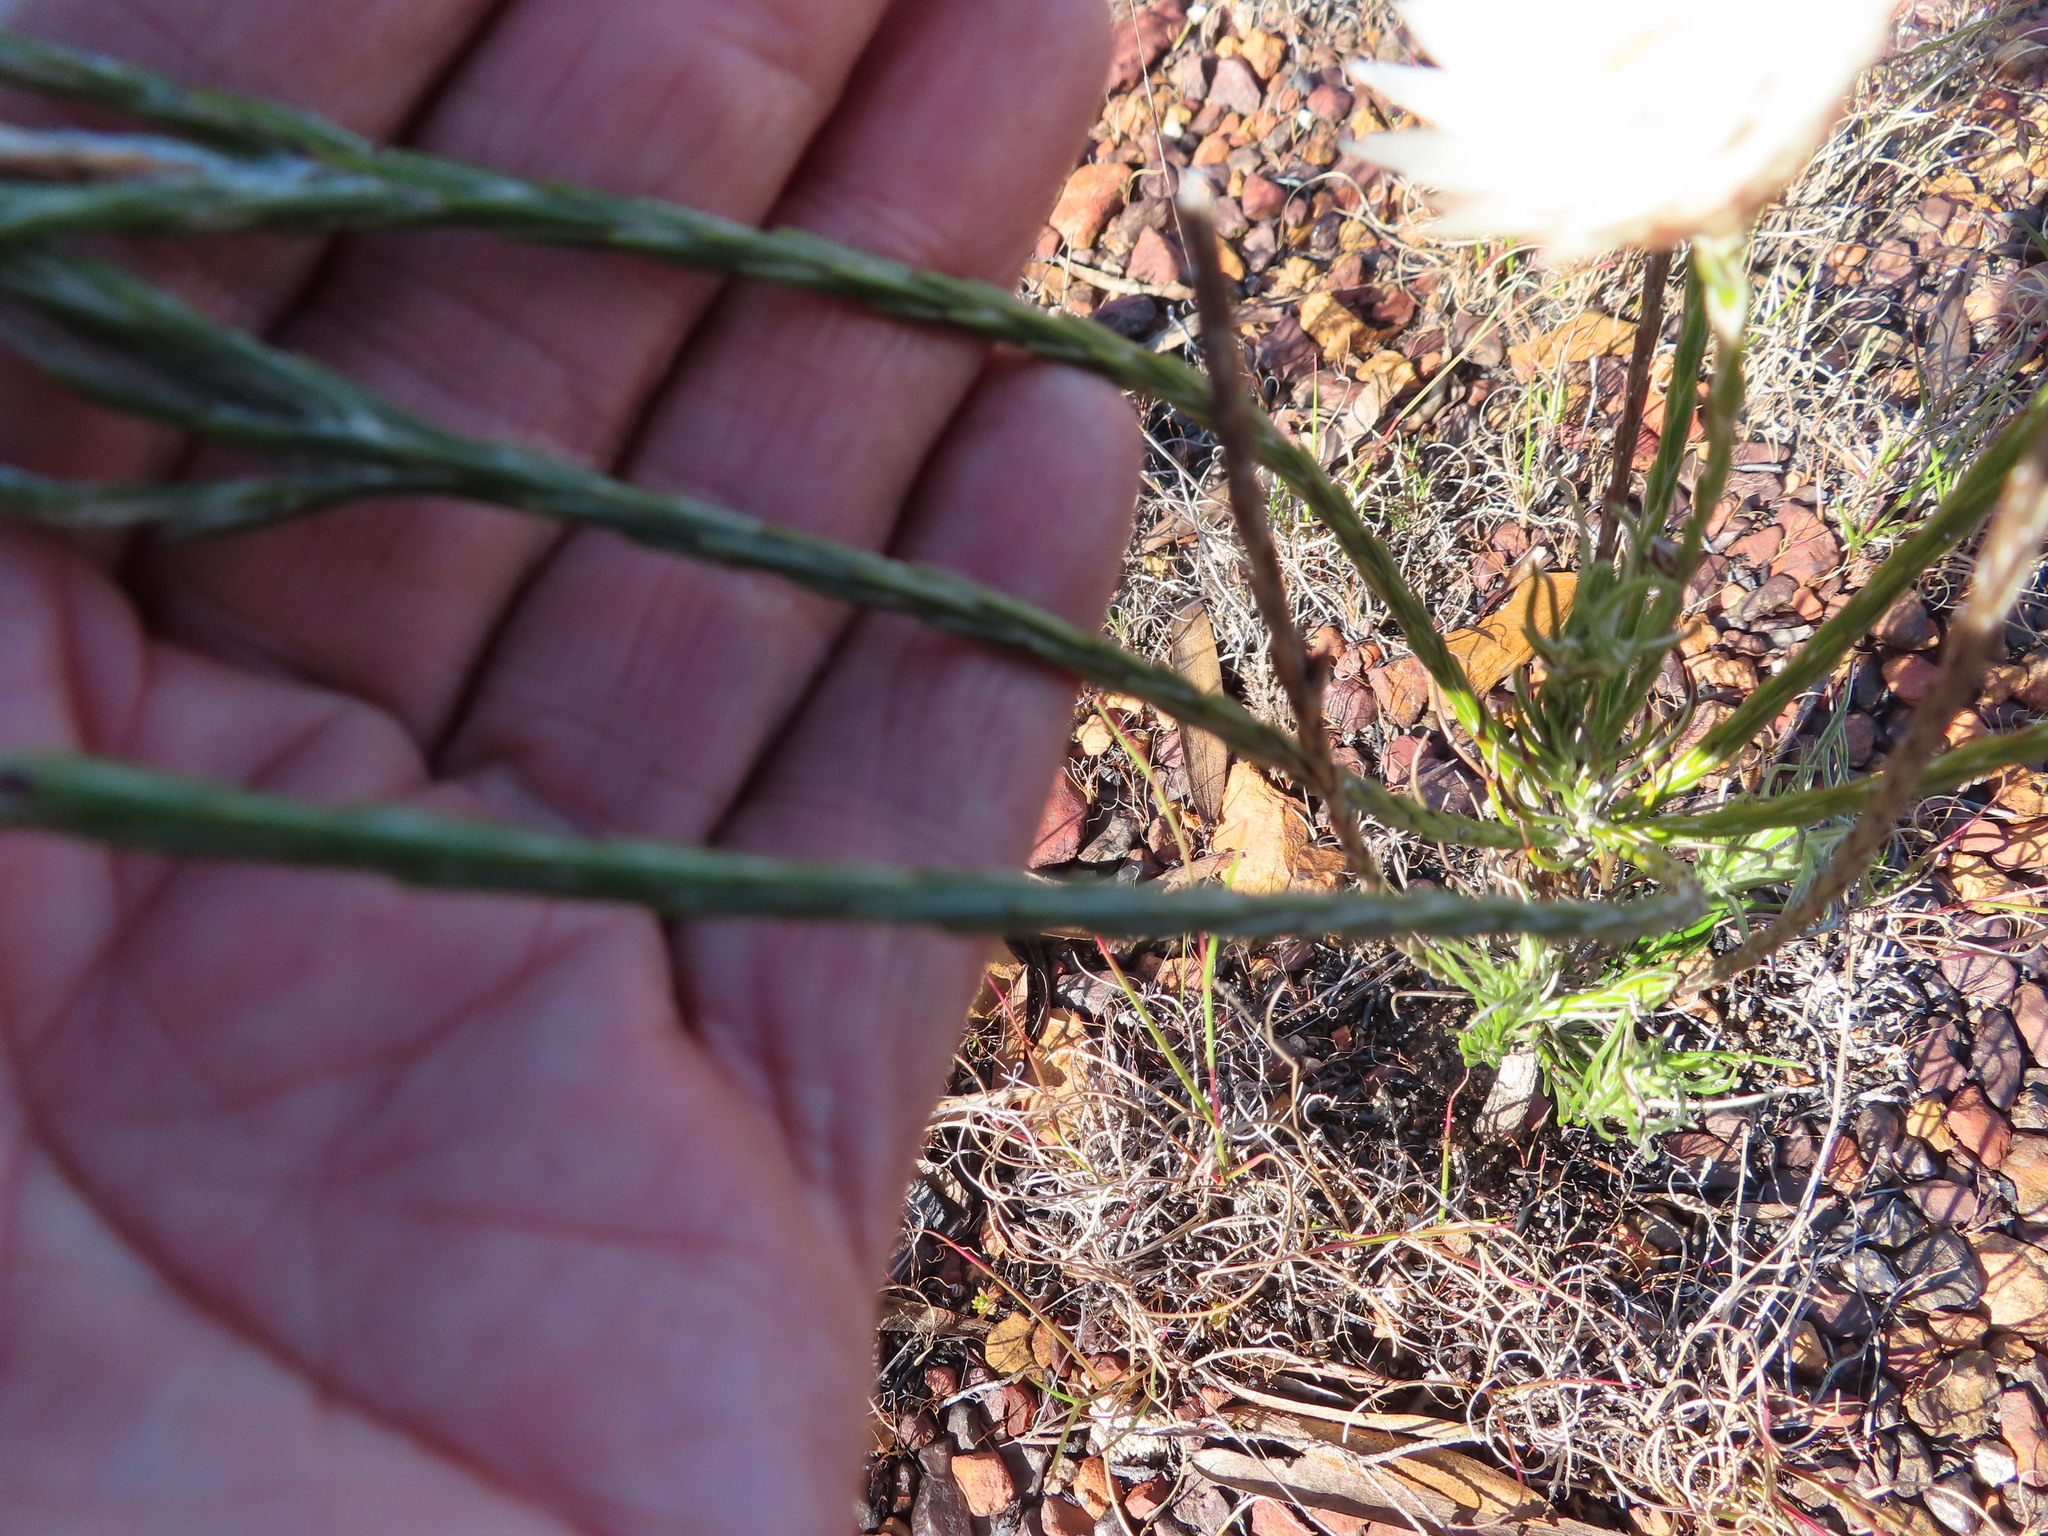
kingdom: Plantae
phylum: Tracheophyta
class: Magnoliopsida
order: Asterales
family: Asteraceae
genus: Edmondia
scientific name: Edmondia sesamoides
